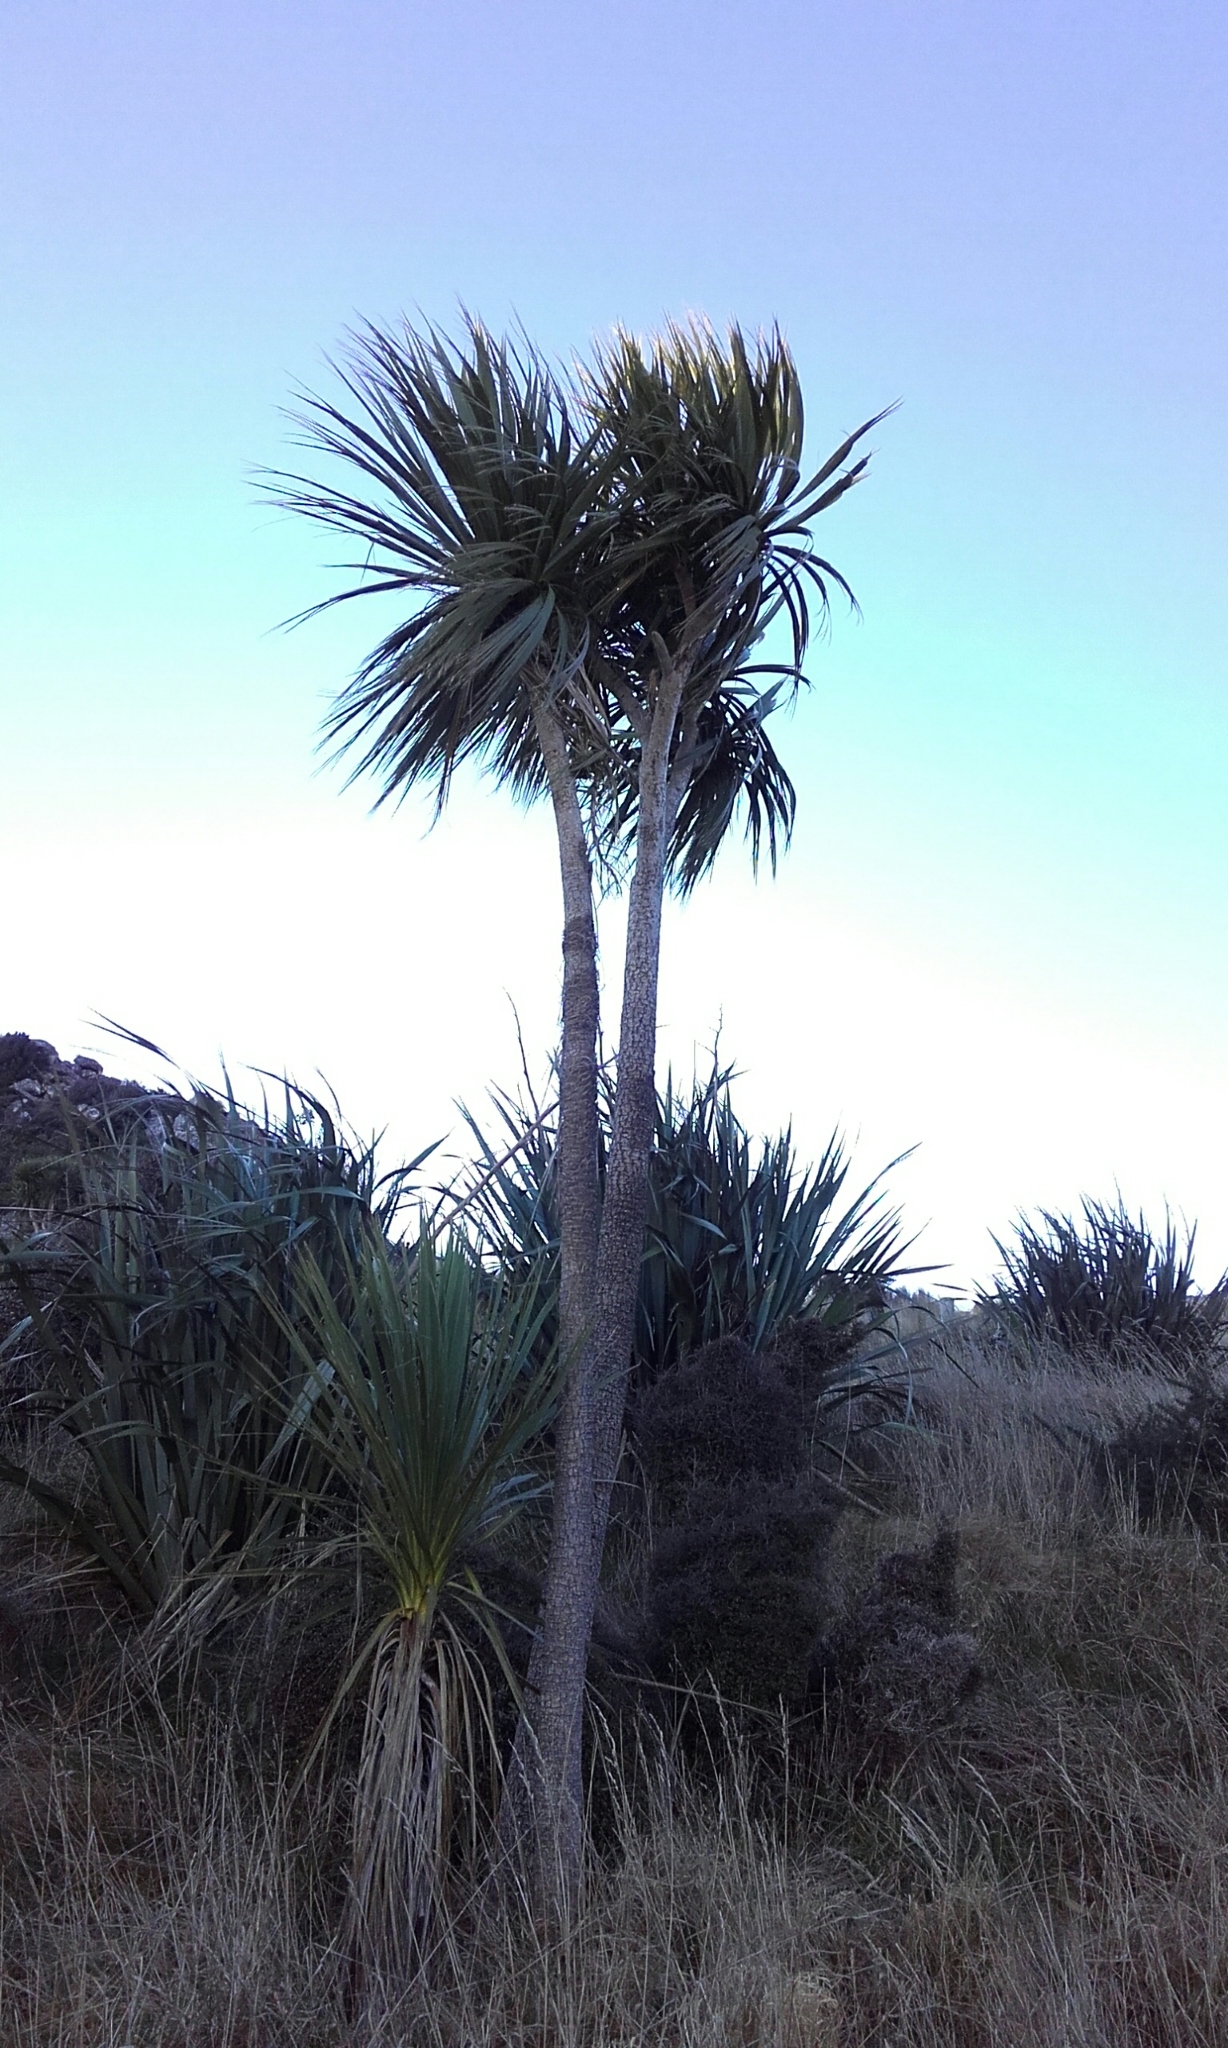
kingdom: Plantae
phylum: Tracheophyta
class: Liliopsida
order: Asparagales
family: Asparagaceae
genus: Cordyline
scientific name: Cordyline australis
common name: Cabbage-palm
